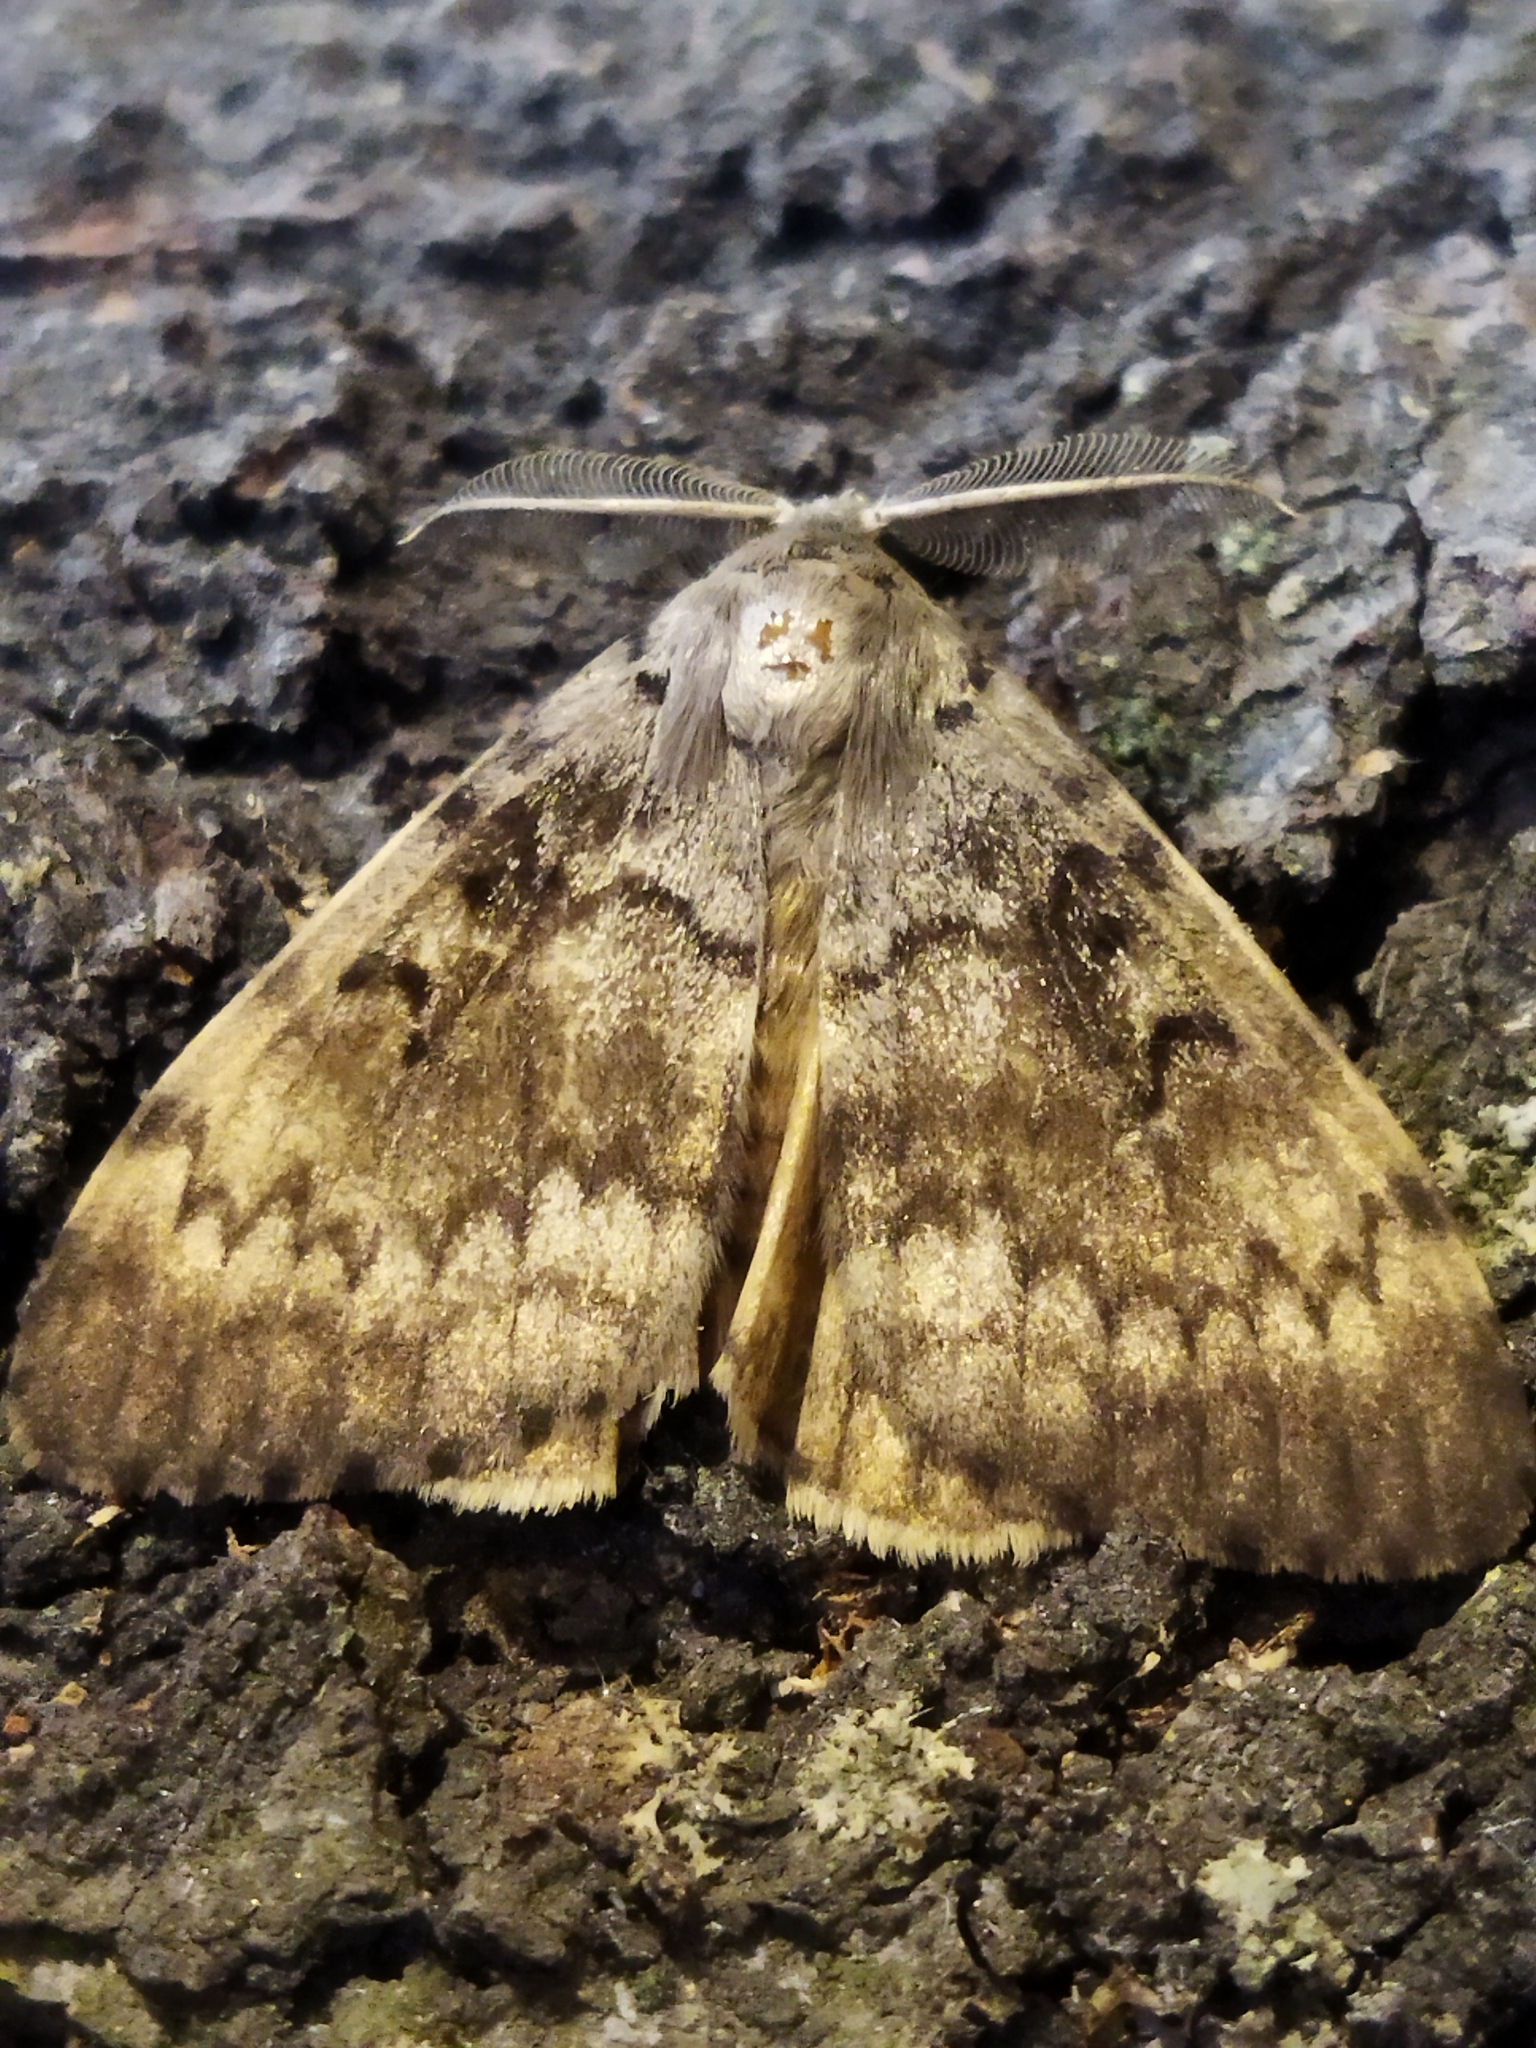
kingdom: Animalia
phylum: Arthropoda
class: Insecta
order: Lepidoptera
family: Erebidae
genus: Lymantria
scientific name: Lymantria dispar
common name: Gypsy moth
